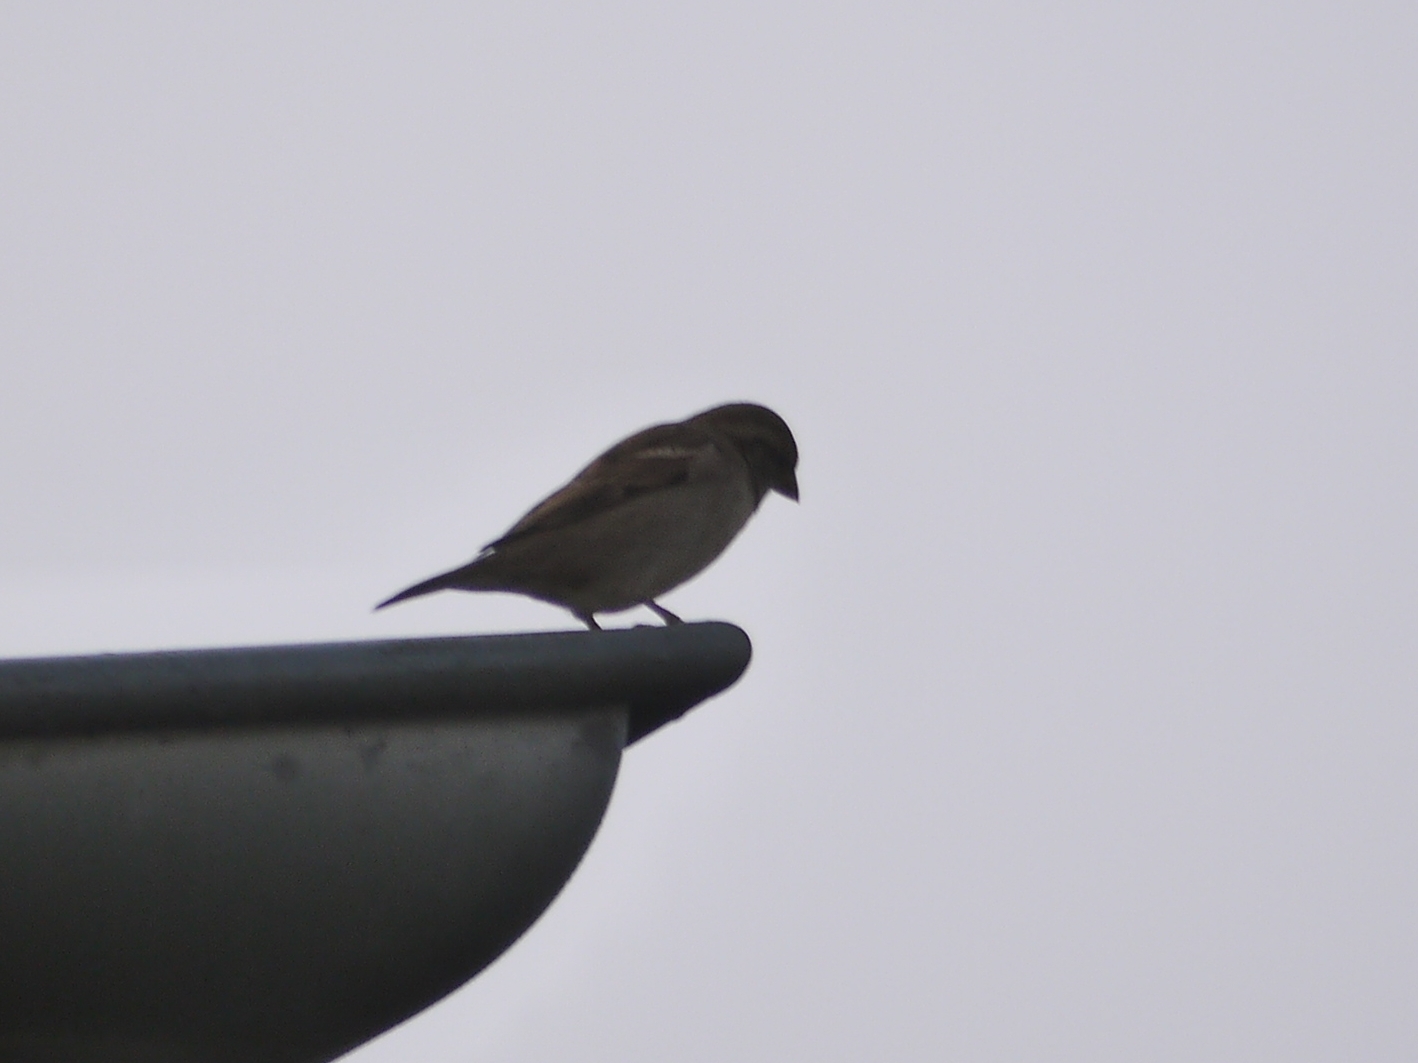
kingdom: Animalia
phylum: Chordata
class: Aves
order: Passeriformes
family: Passeridae
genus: Passer
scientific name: Passer domesticus
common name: House sparrow
